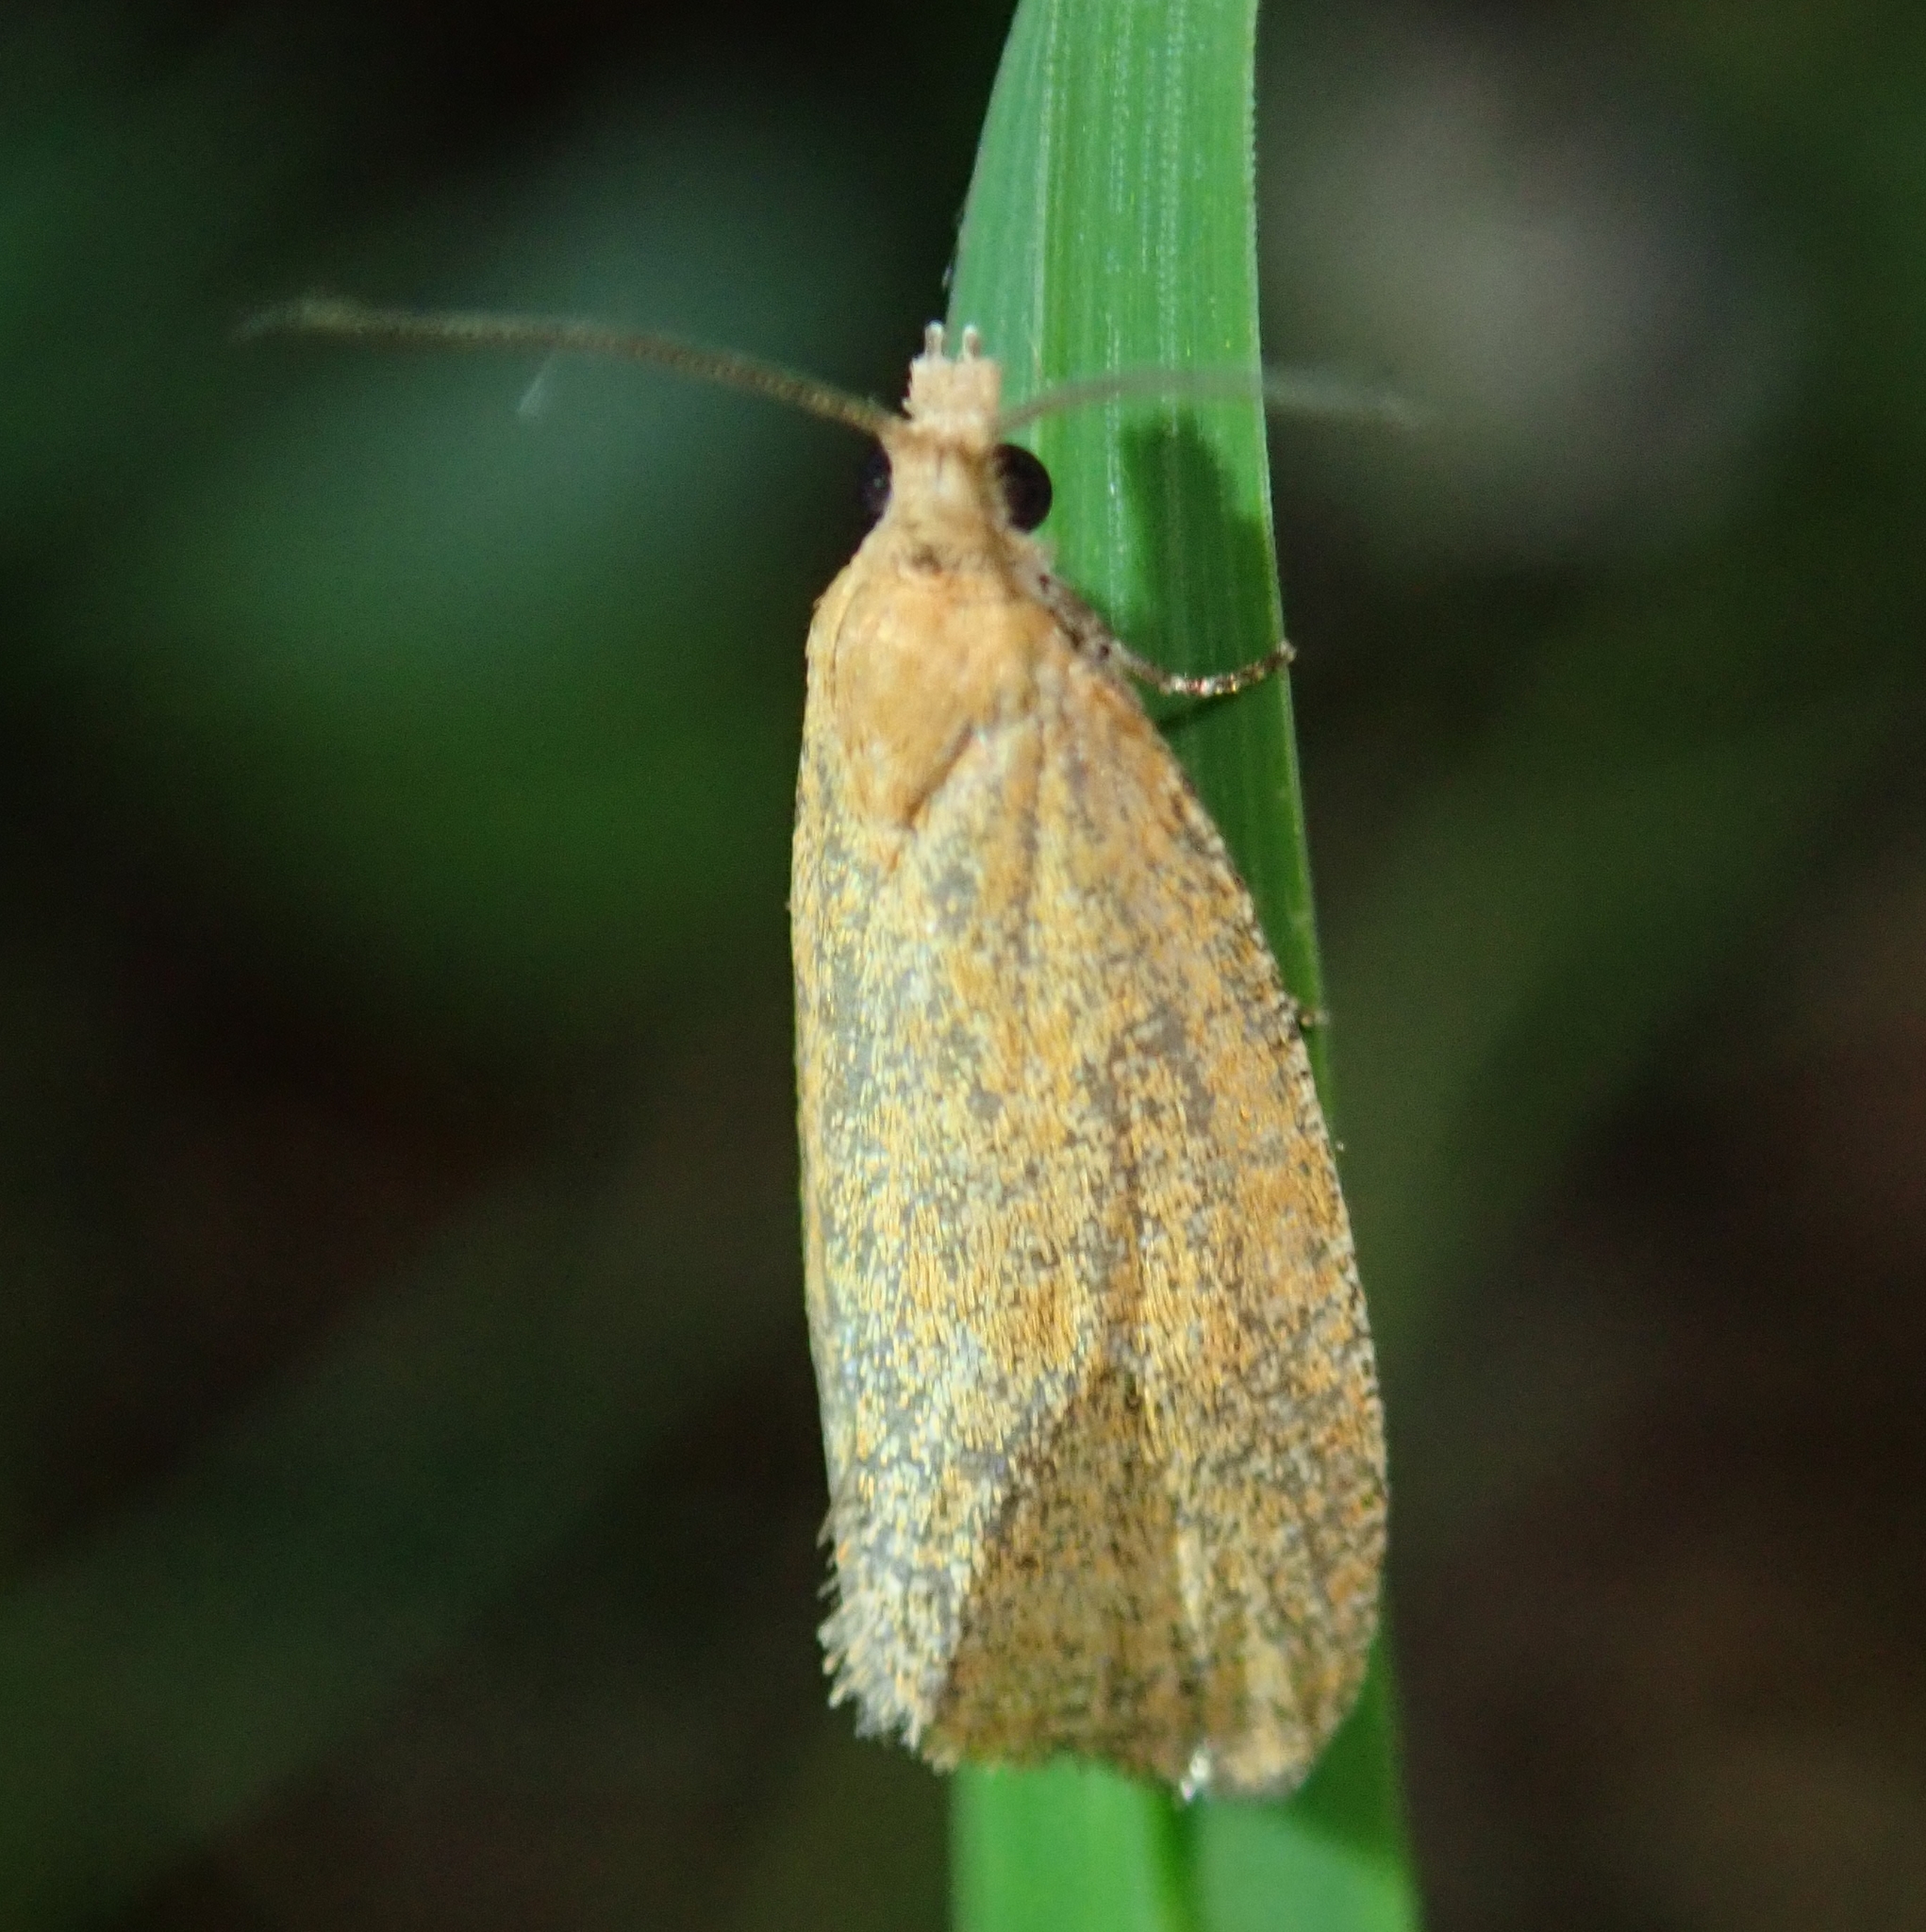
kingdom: Animalia
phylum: Arthropoda
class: Insecta
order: Lepidoptera
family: Tortricidae
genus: Celypha
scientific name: Celypha rufana
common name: Lakes marble
